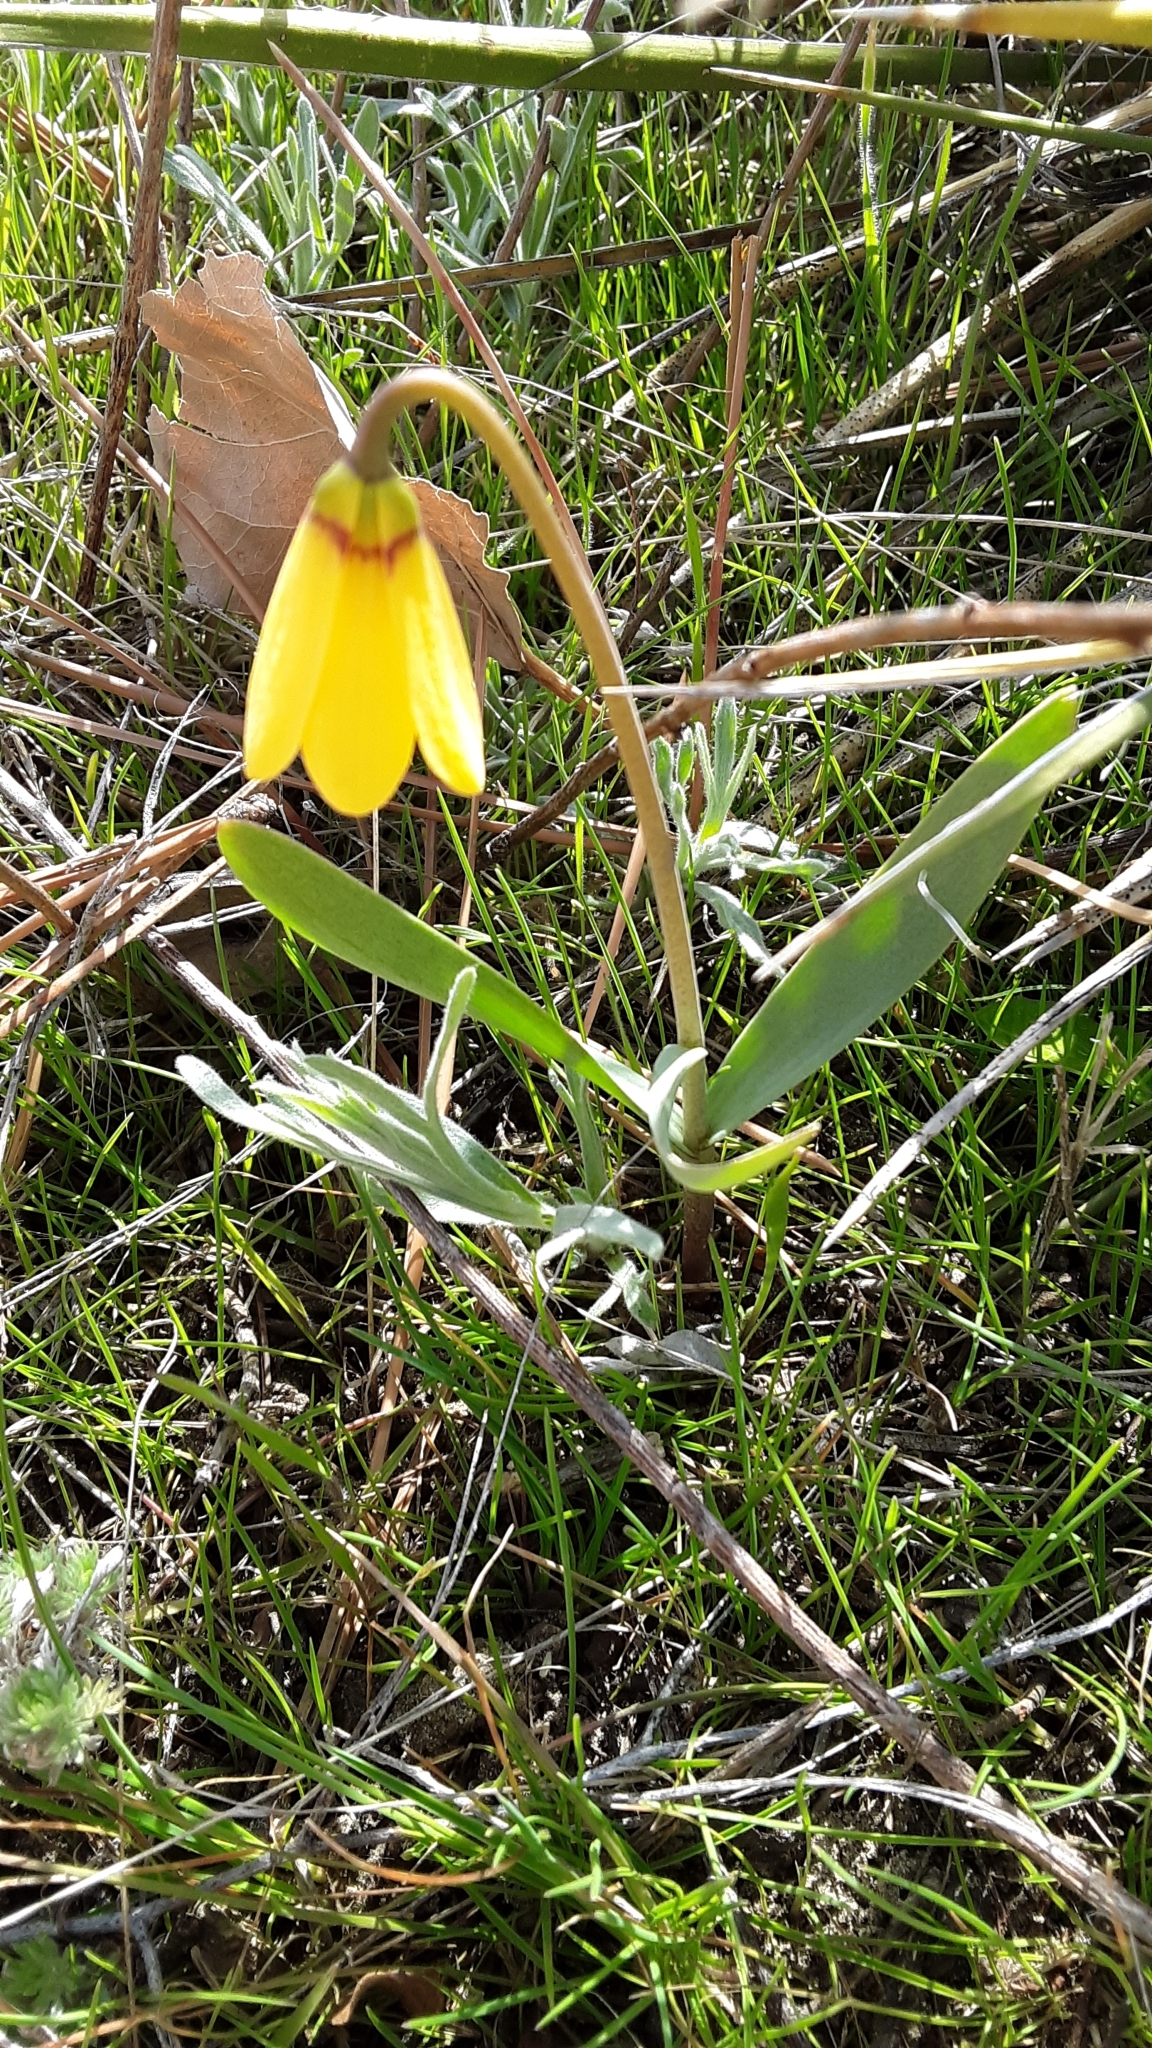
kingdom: Plantae
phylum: Tracheophyta
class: Liliopsida
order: Liliales
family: Liliaceae
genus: Fritillaria
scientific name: Fritillaria pudica
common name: Yellow fritillary
